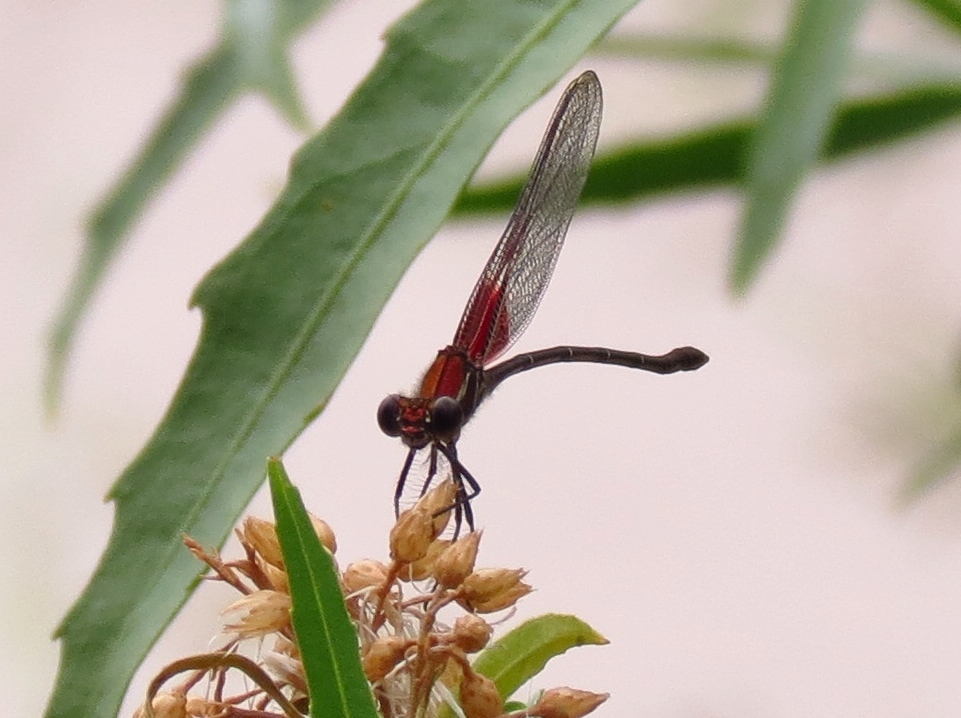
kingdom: Animalia
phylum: Arthropoda
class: Insecta
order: Odonata
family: Calopterygidae
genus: Hetaerina
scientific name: Hetaerina americana
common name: American rubyspot
